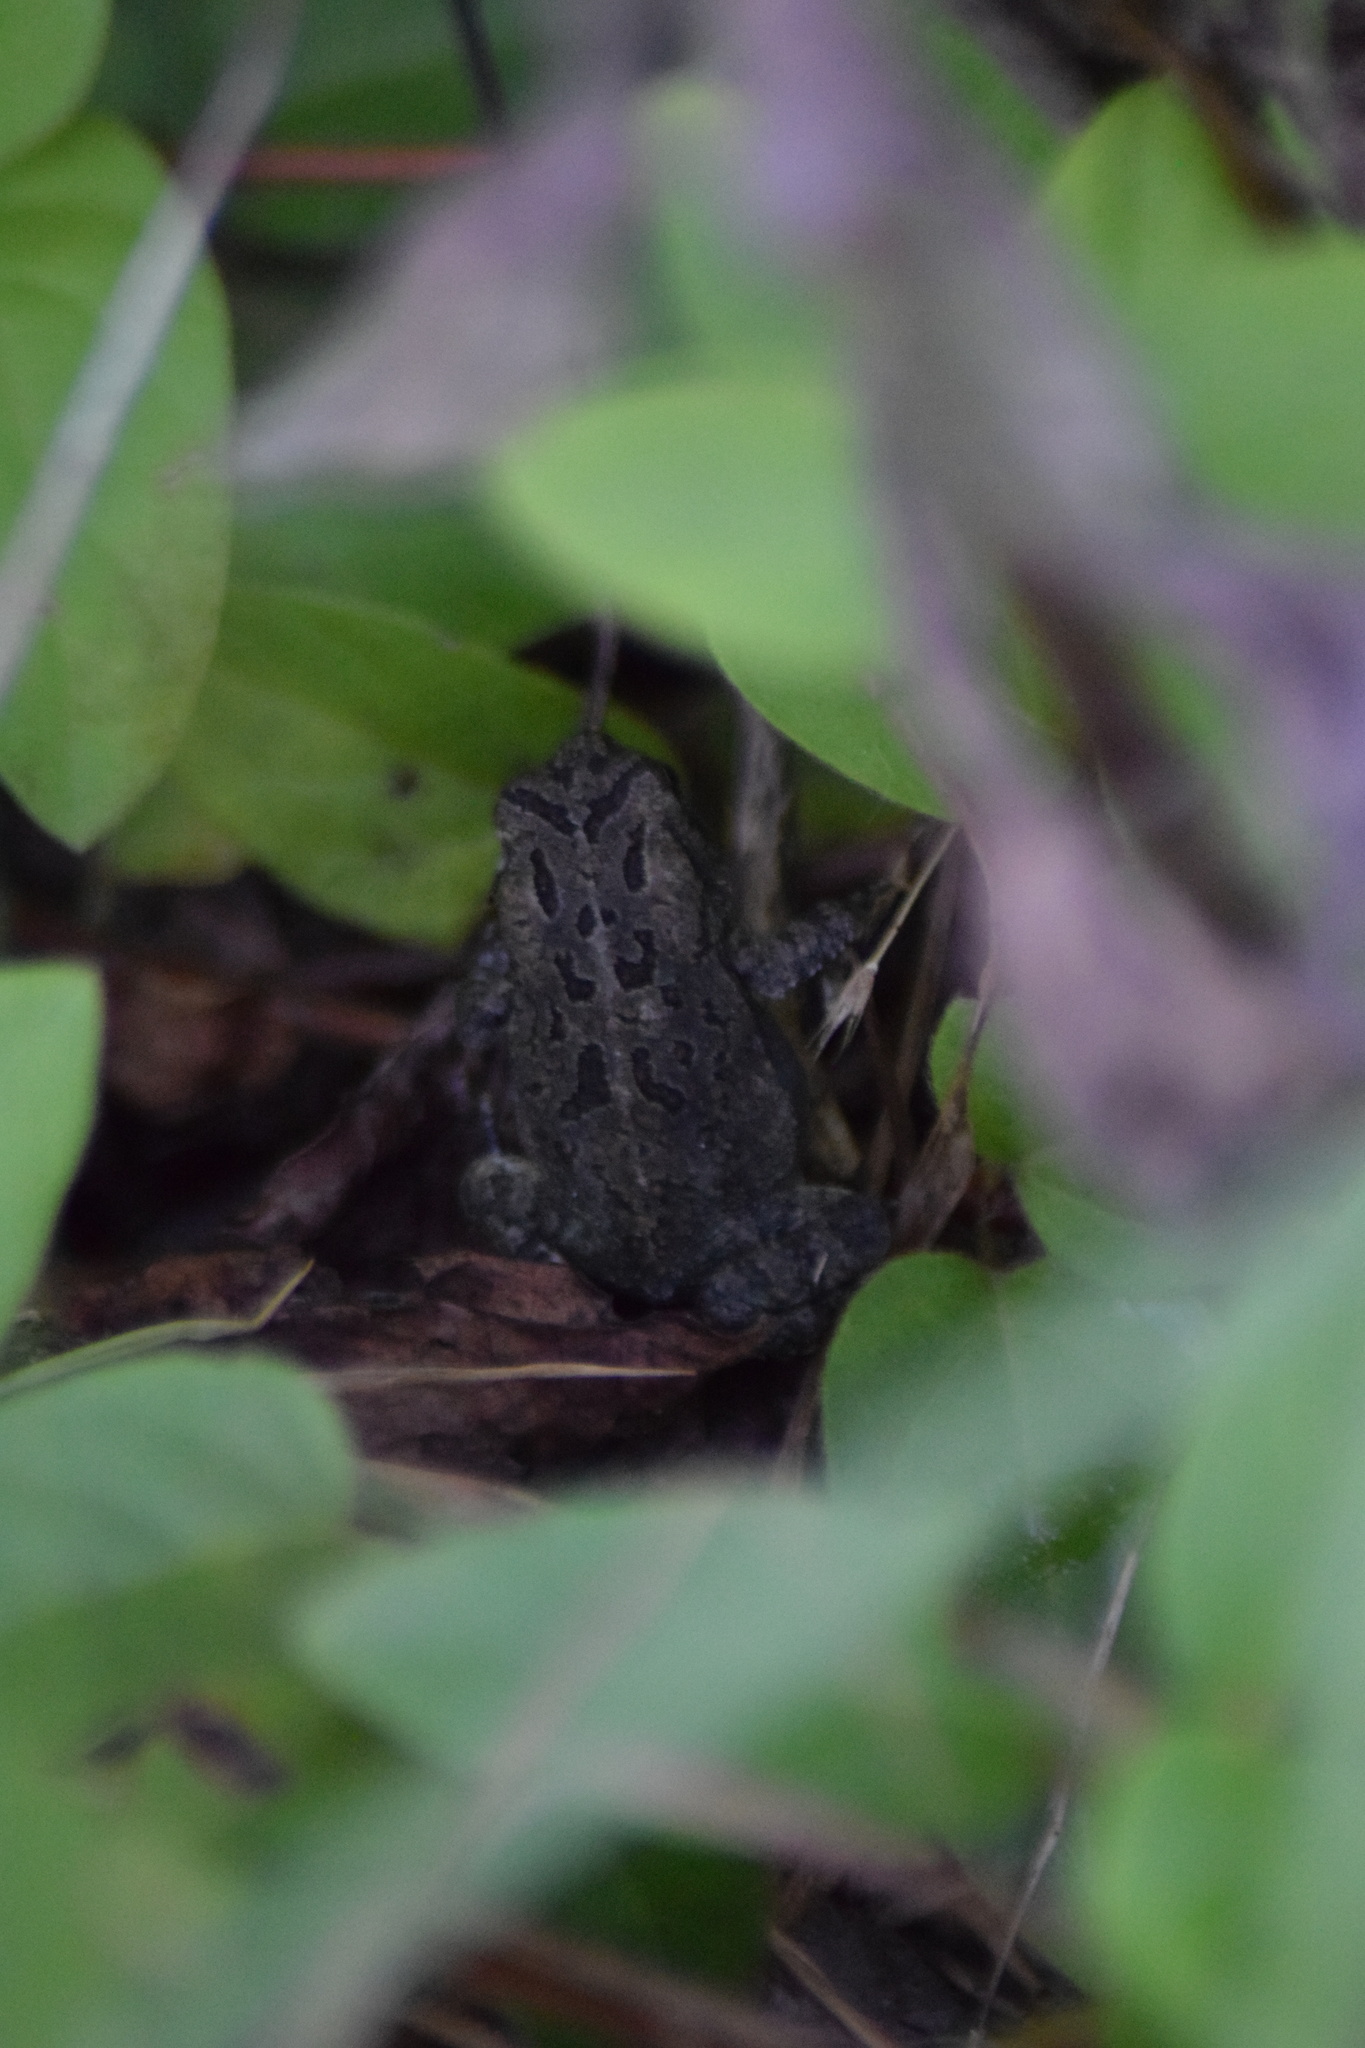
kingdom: Animalia
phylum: Chordata
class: Amphibia
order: Anura
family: Bufonidae
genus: Anaxyrus
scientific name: Anaxyrus fowleri
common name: Fowler's toad
